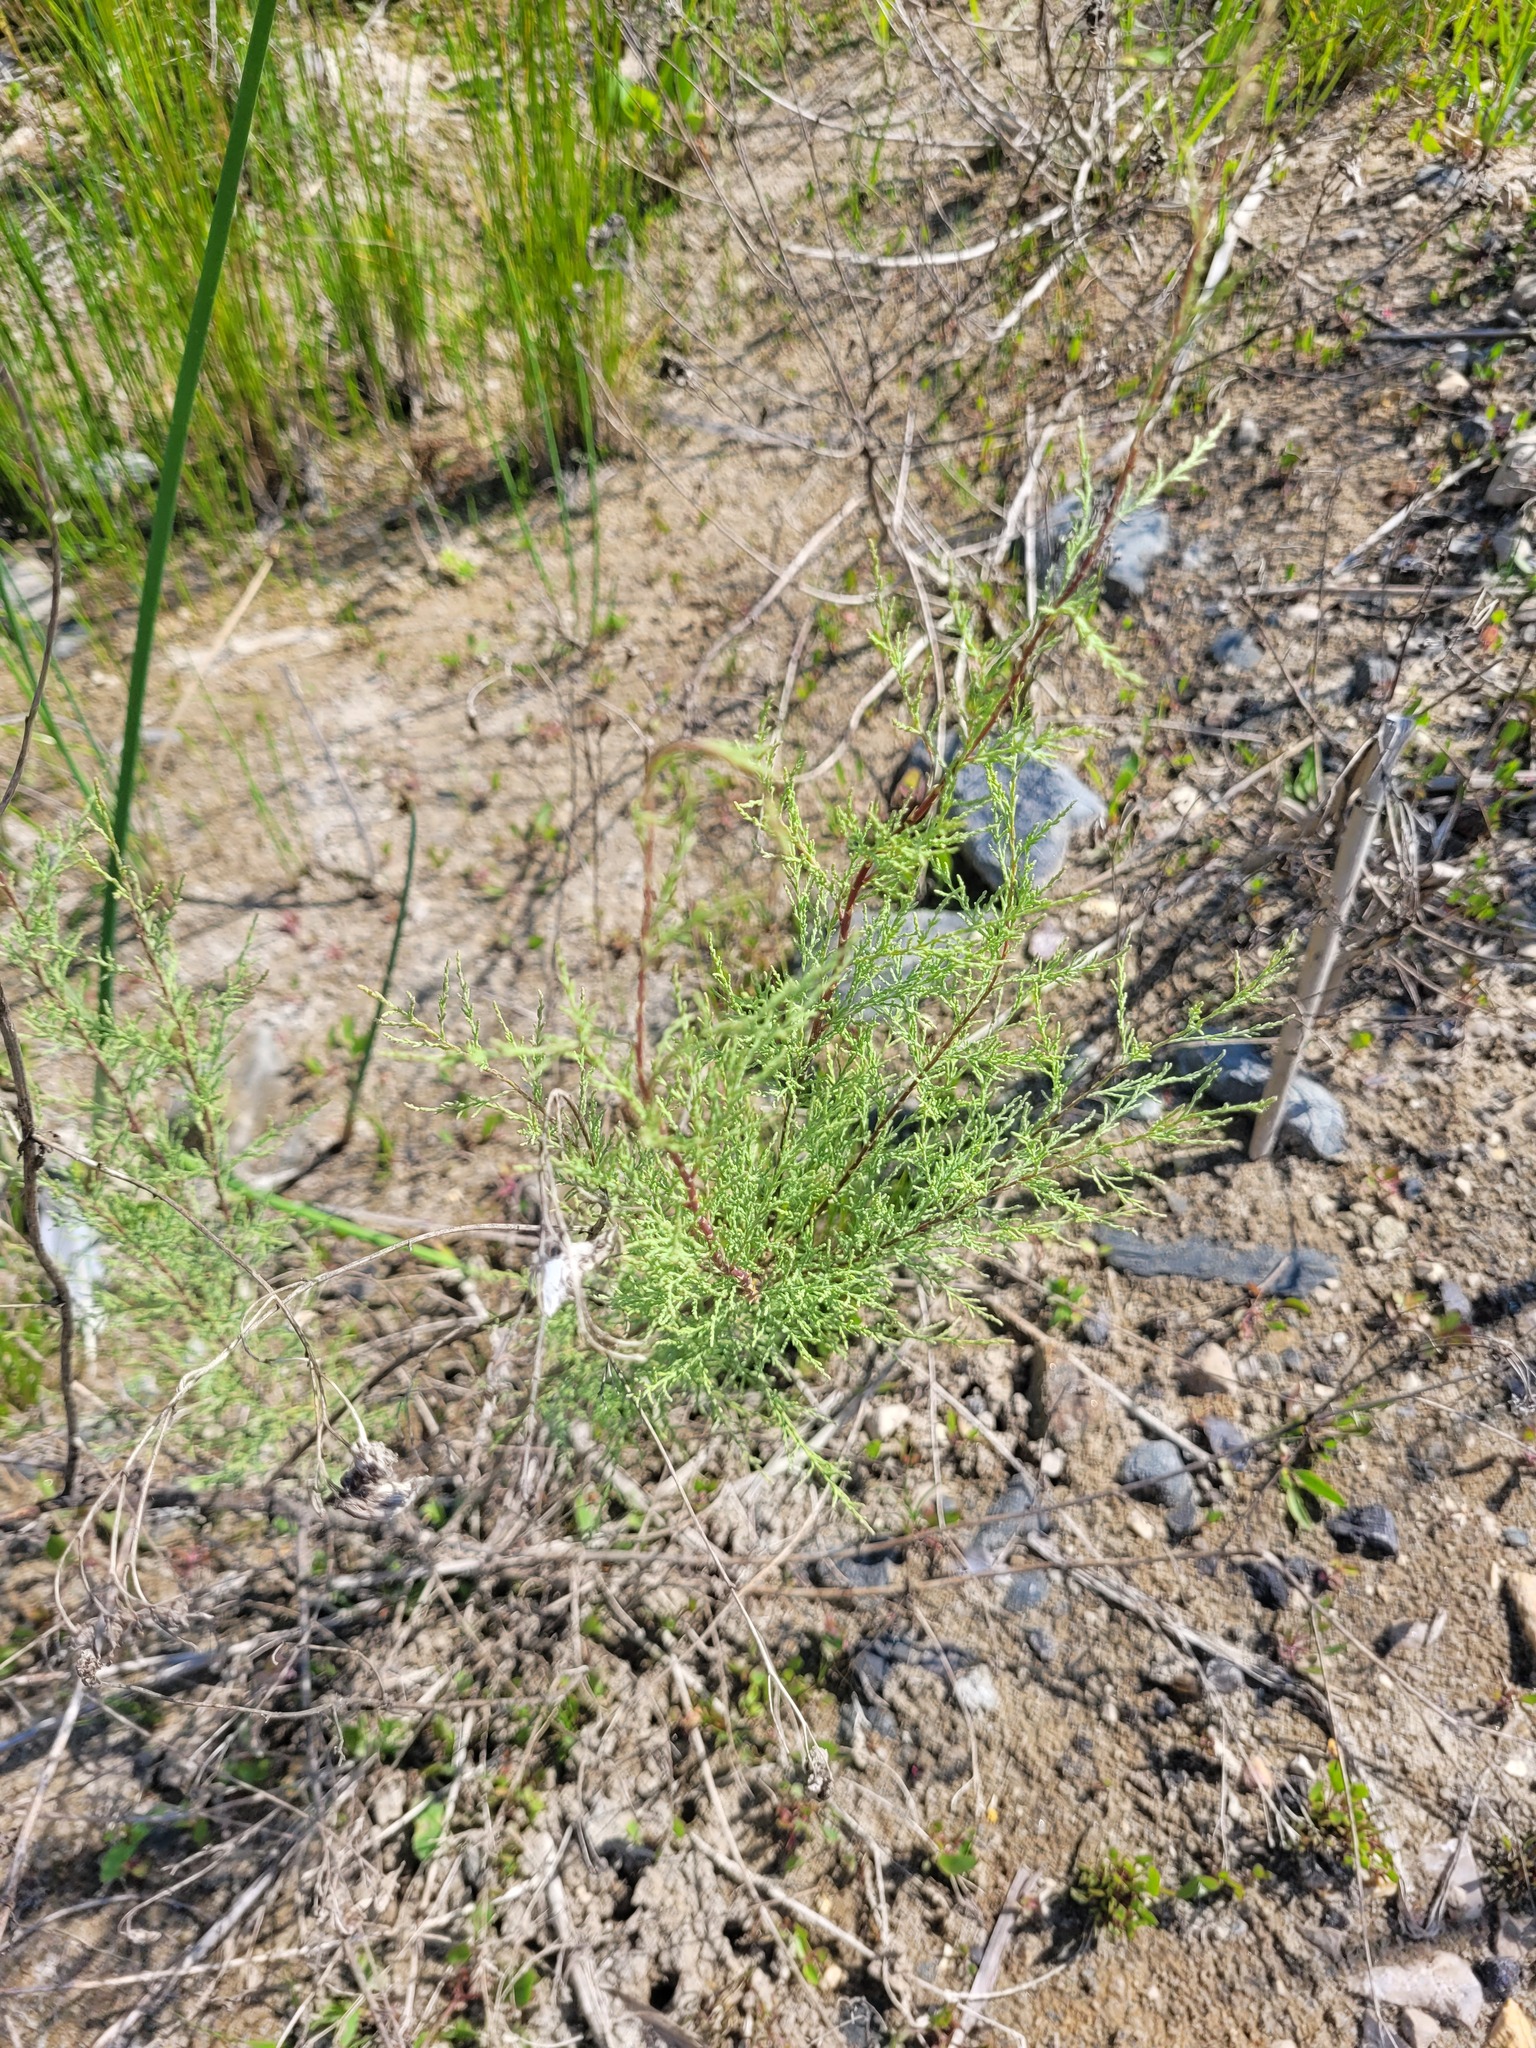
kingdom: Plantae
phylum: Tracheophyta
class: Magnoliopsida
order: Caryophyllales
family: Tamaricaceae
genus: Tamarix
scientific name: Tamarix ramosissima
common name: Pink tamarisk
